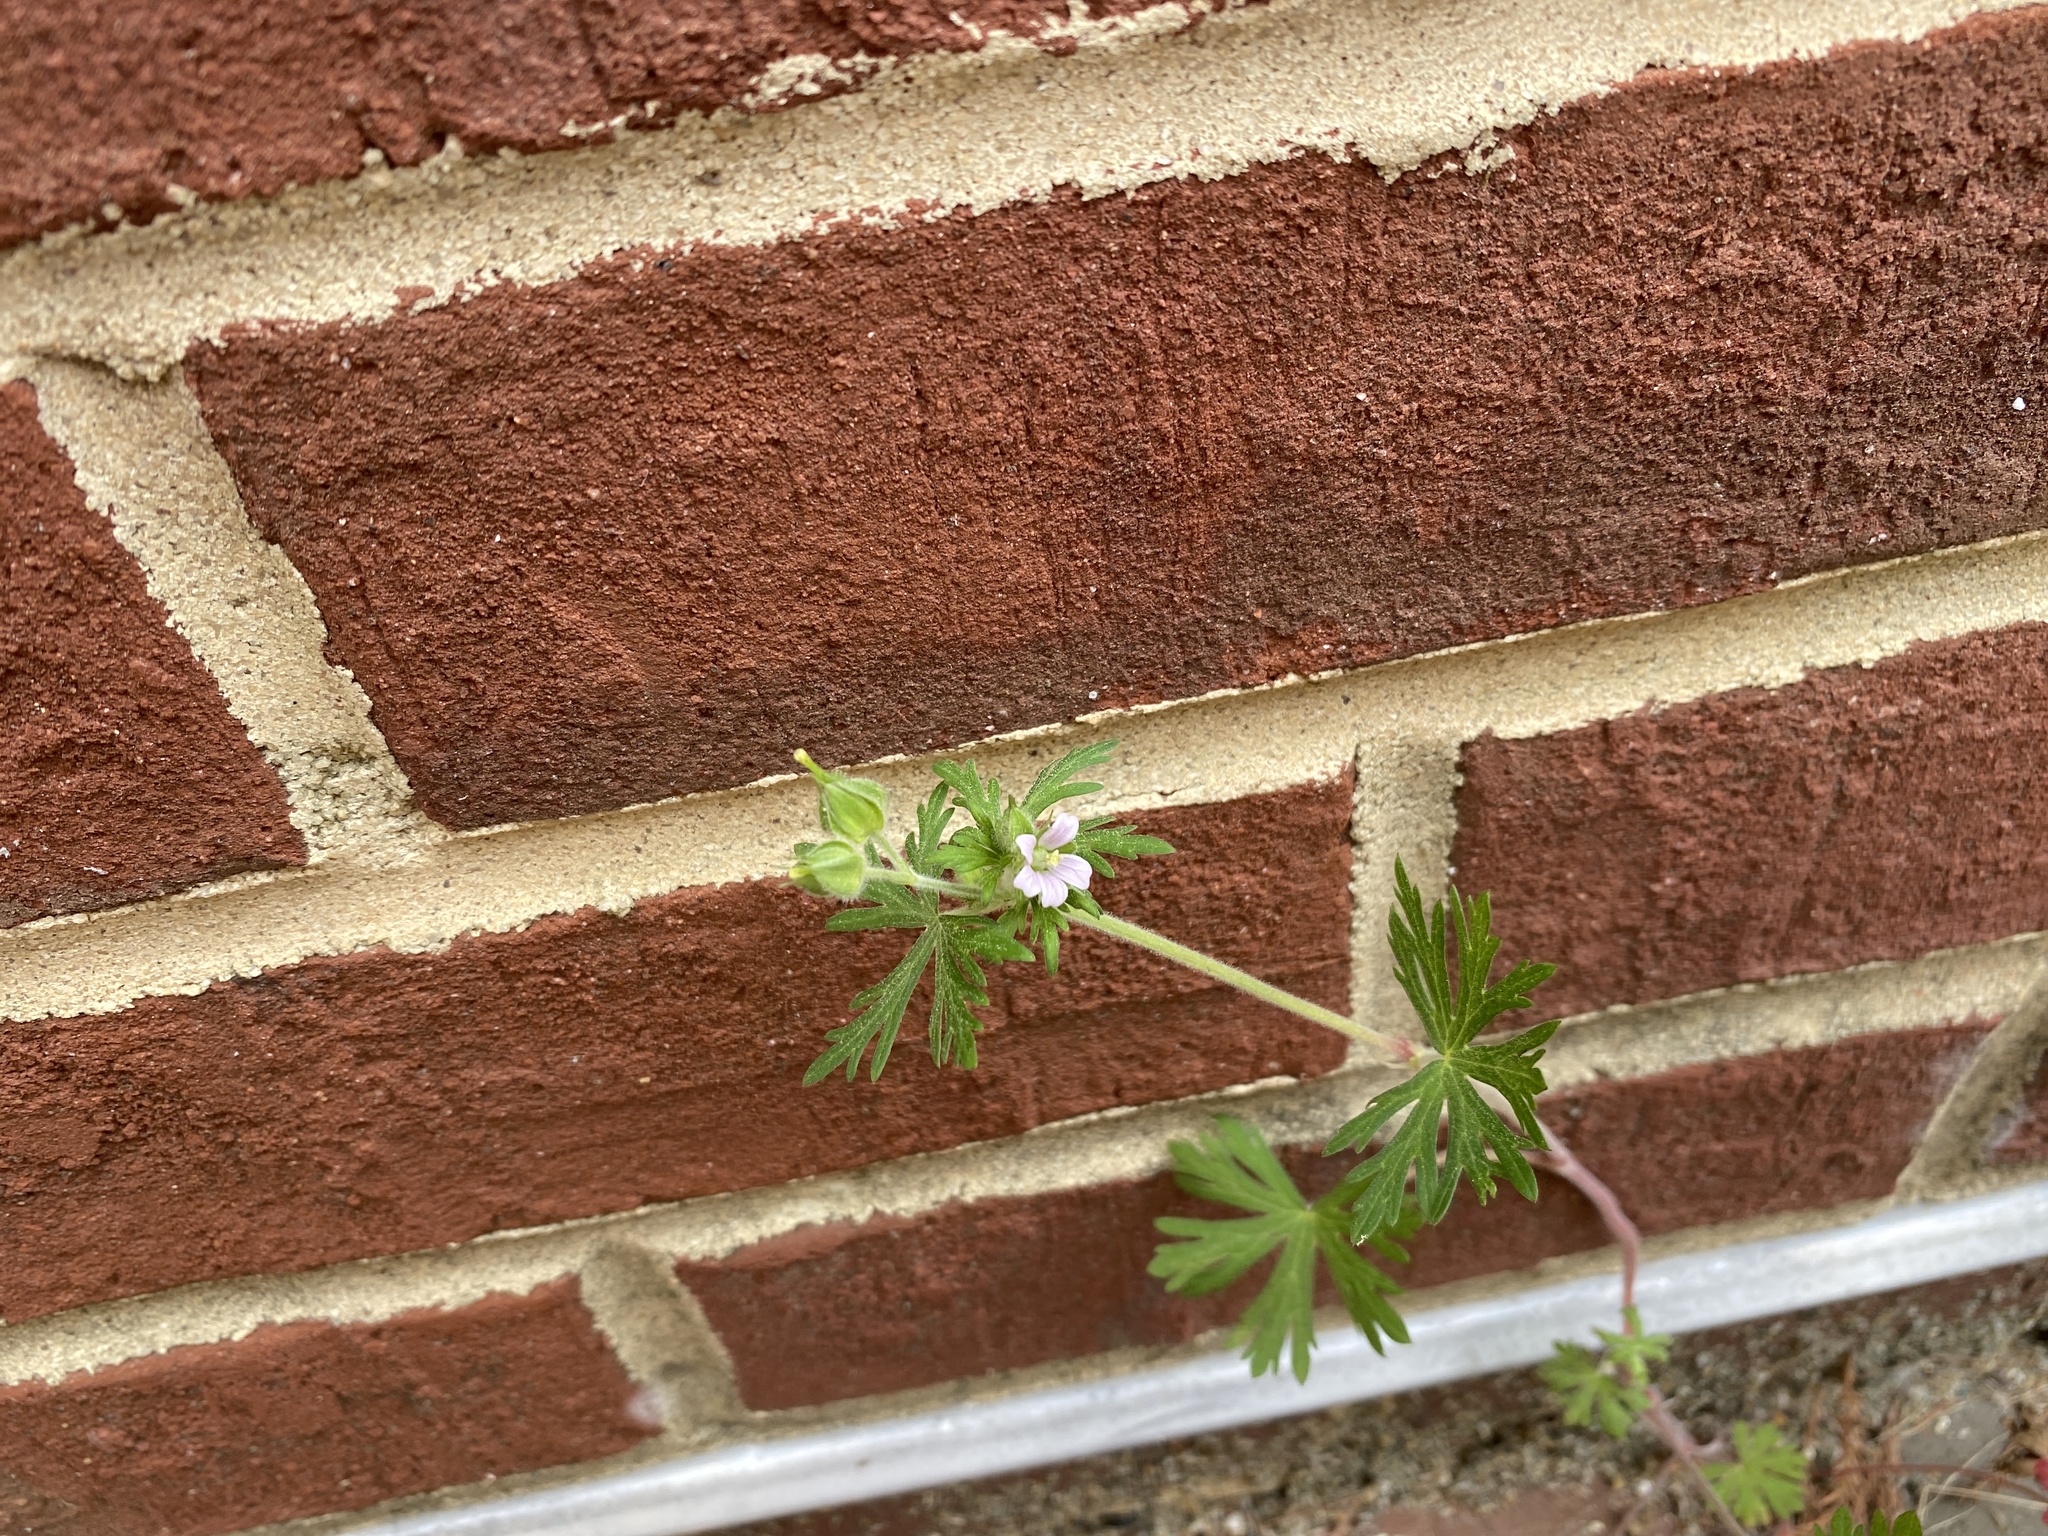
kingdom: Plantae
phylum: Tracheophyta
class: Magnoliopsida
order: Geraniales
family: Geraniaceae
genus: Geranium
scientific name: Geranium carolinianum
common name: Carolina crane's-bill
